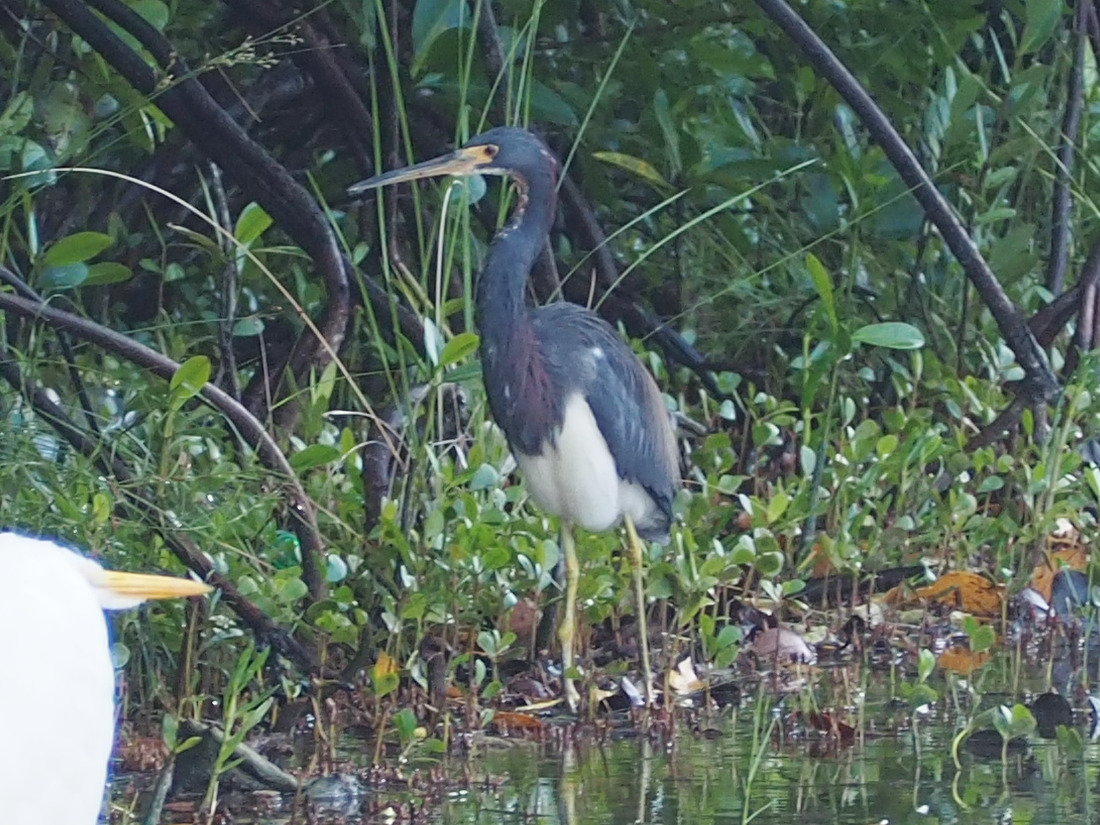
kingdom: Animalia
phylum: Chordata
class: Aves
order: Pelecaniformes
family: Ardeidae
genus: Egretta
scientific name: Egretta tricolor
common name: Tricolored heron
